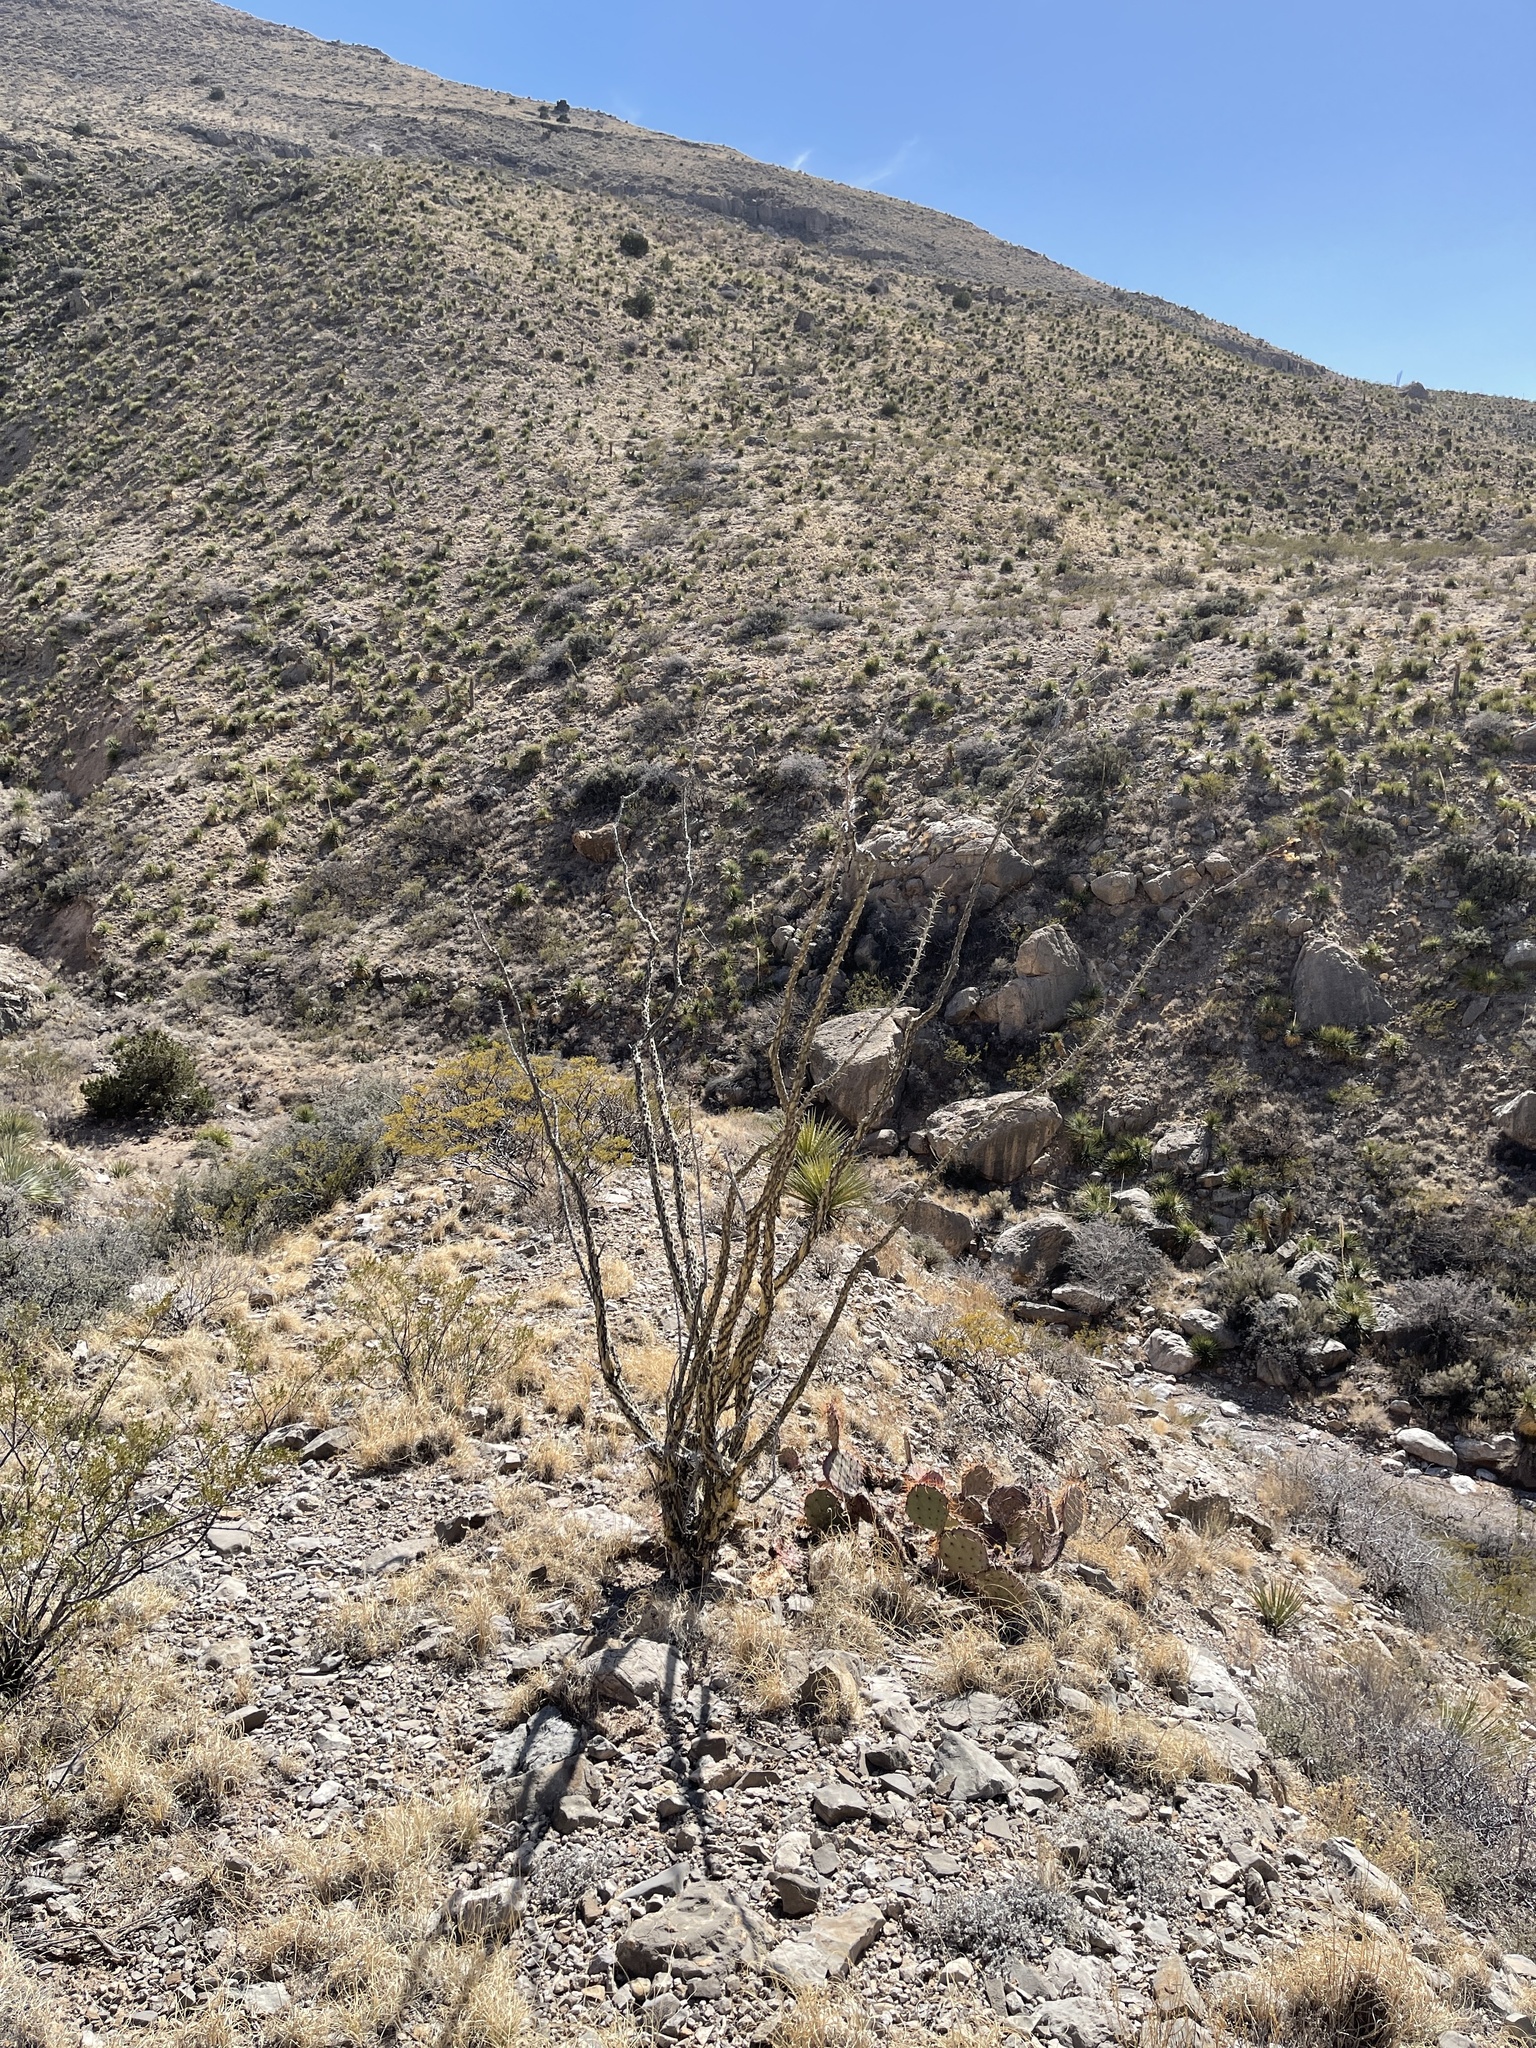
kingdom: Plantae
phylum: Tracheophyta
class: Magnoliopsida
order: Ericales
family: Fouquieriaceae
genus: Fouquieria
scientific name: Fouquieria splendens
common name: Vine-cactus
